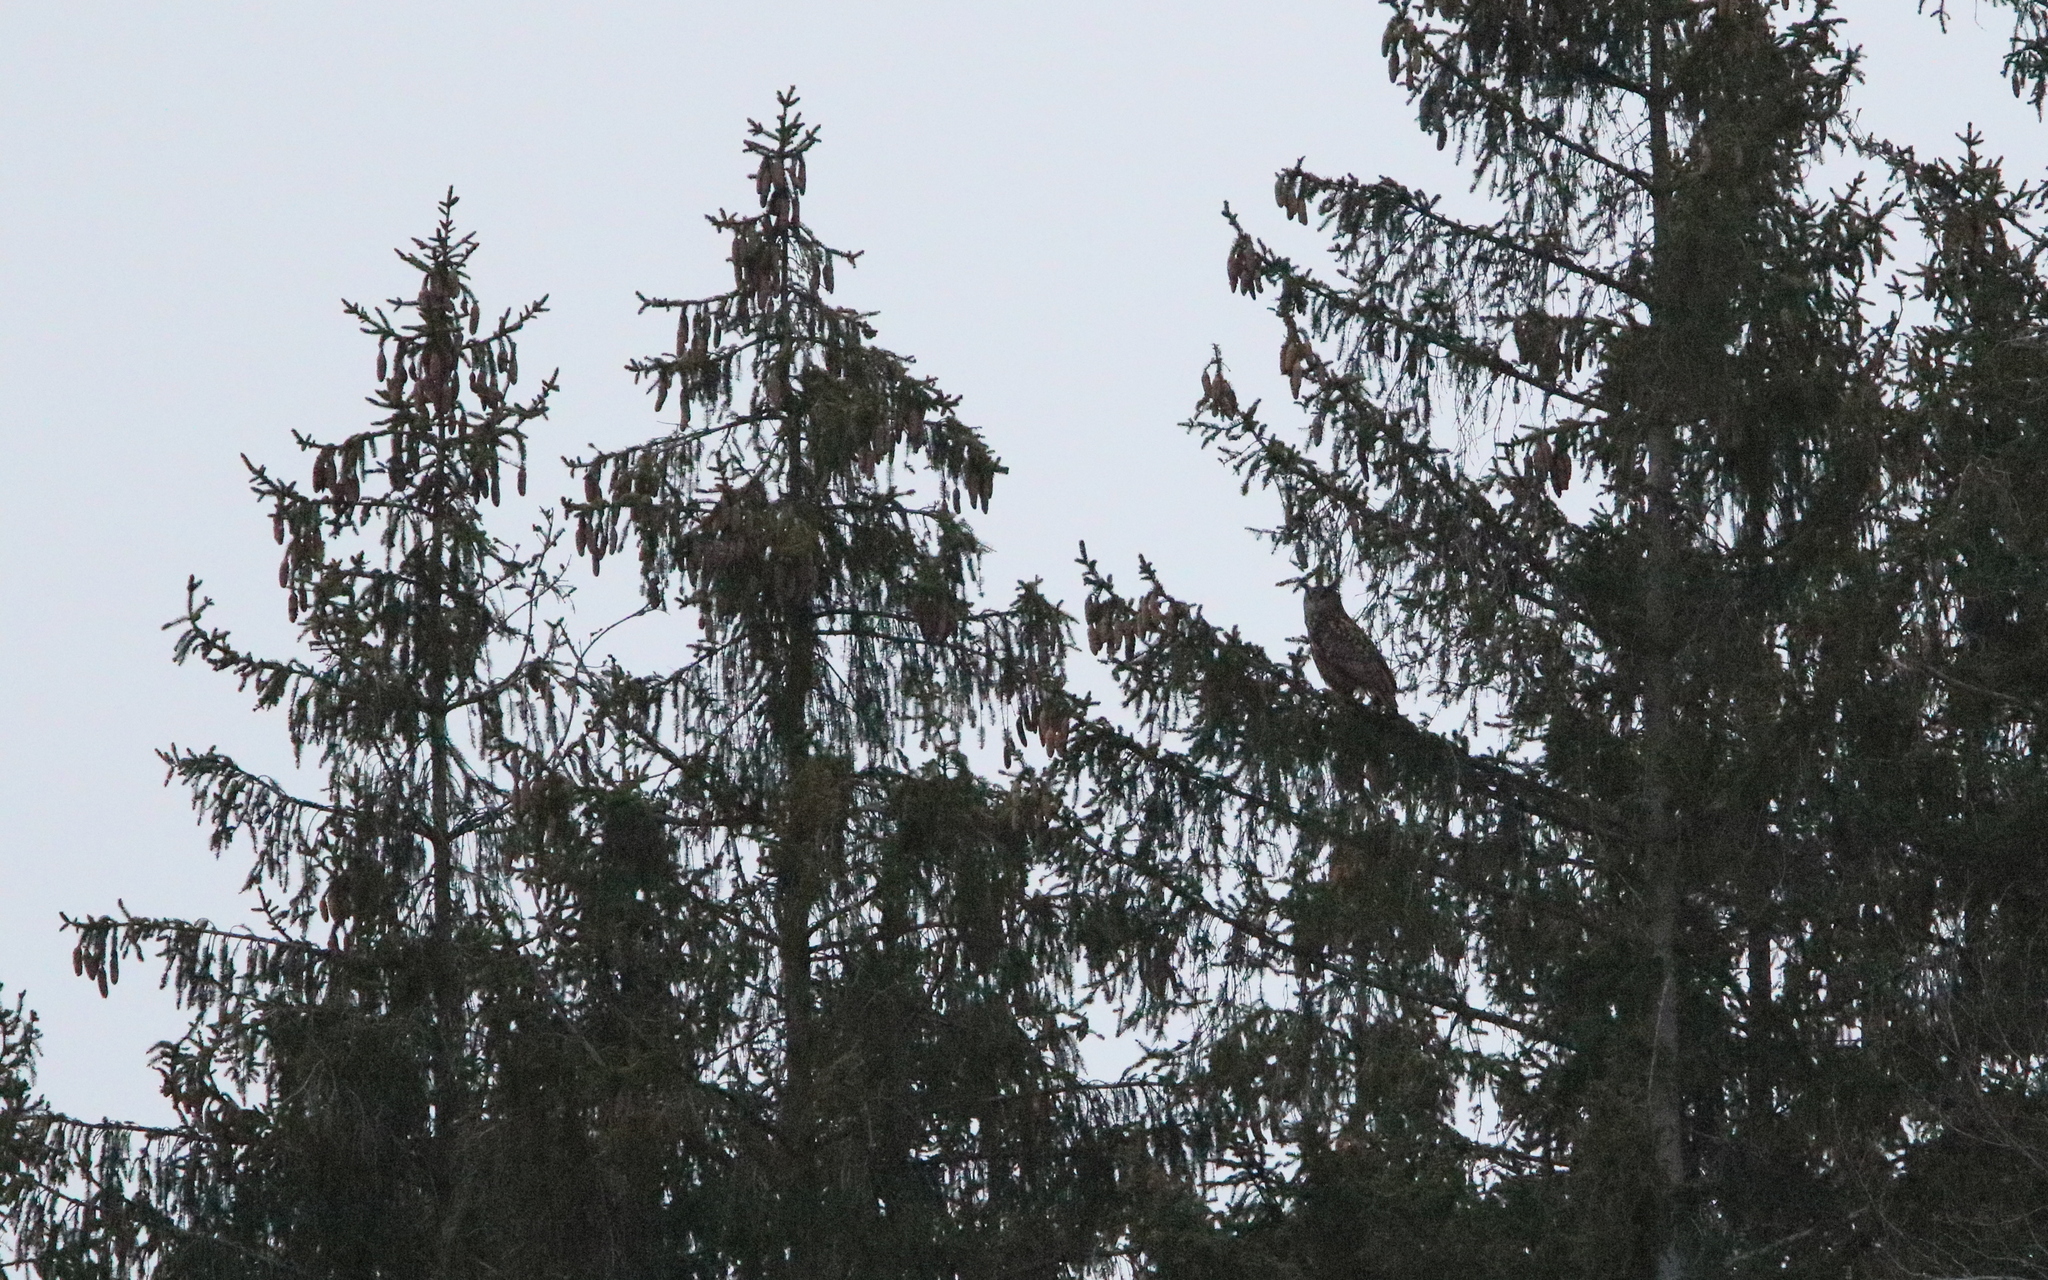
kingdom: Animalia
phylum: Chordata
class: Aves
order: Strigiformes
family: Strigidae
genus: Bubo
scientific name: Bubo bubo
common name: Eurasian eagle-owl
